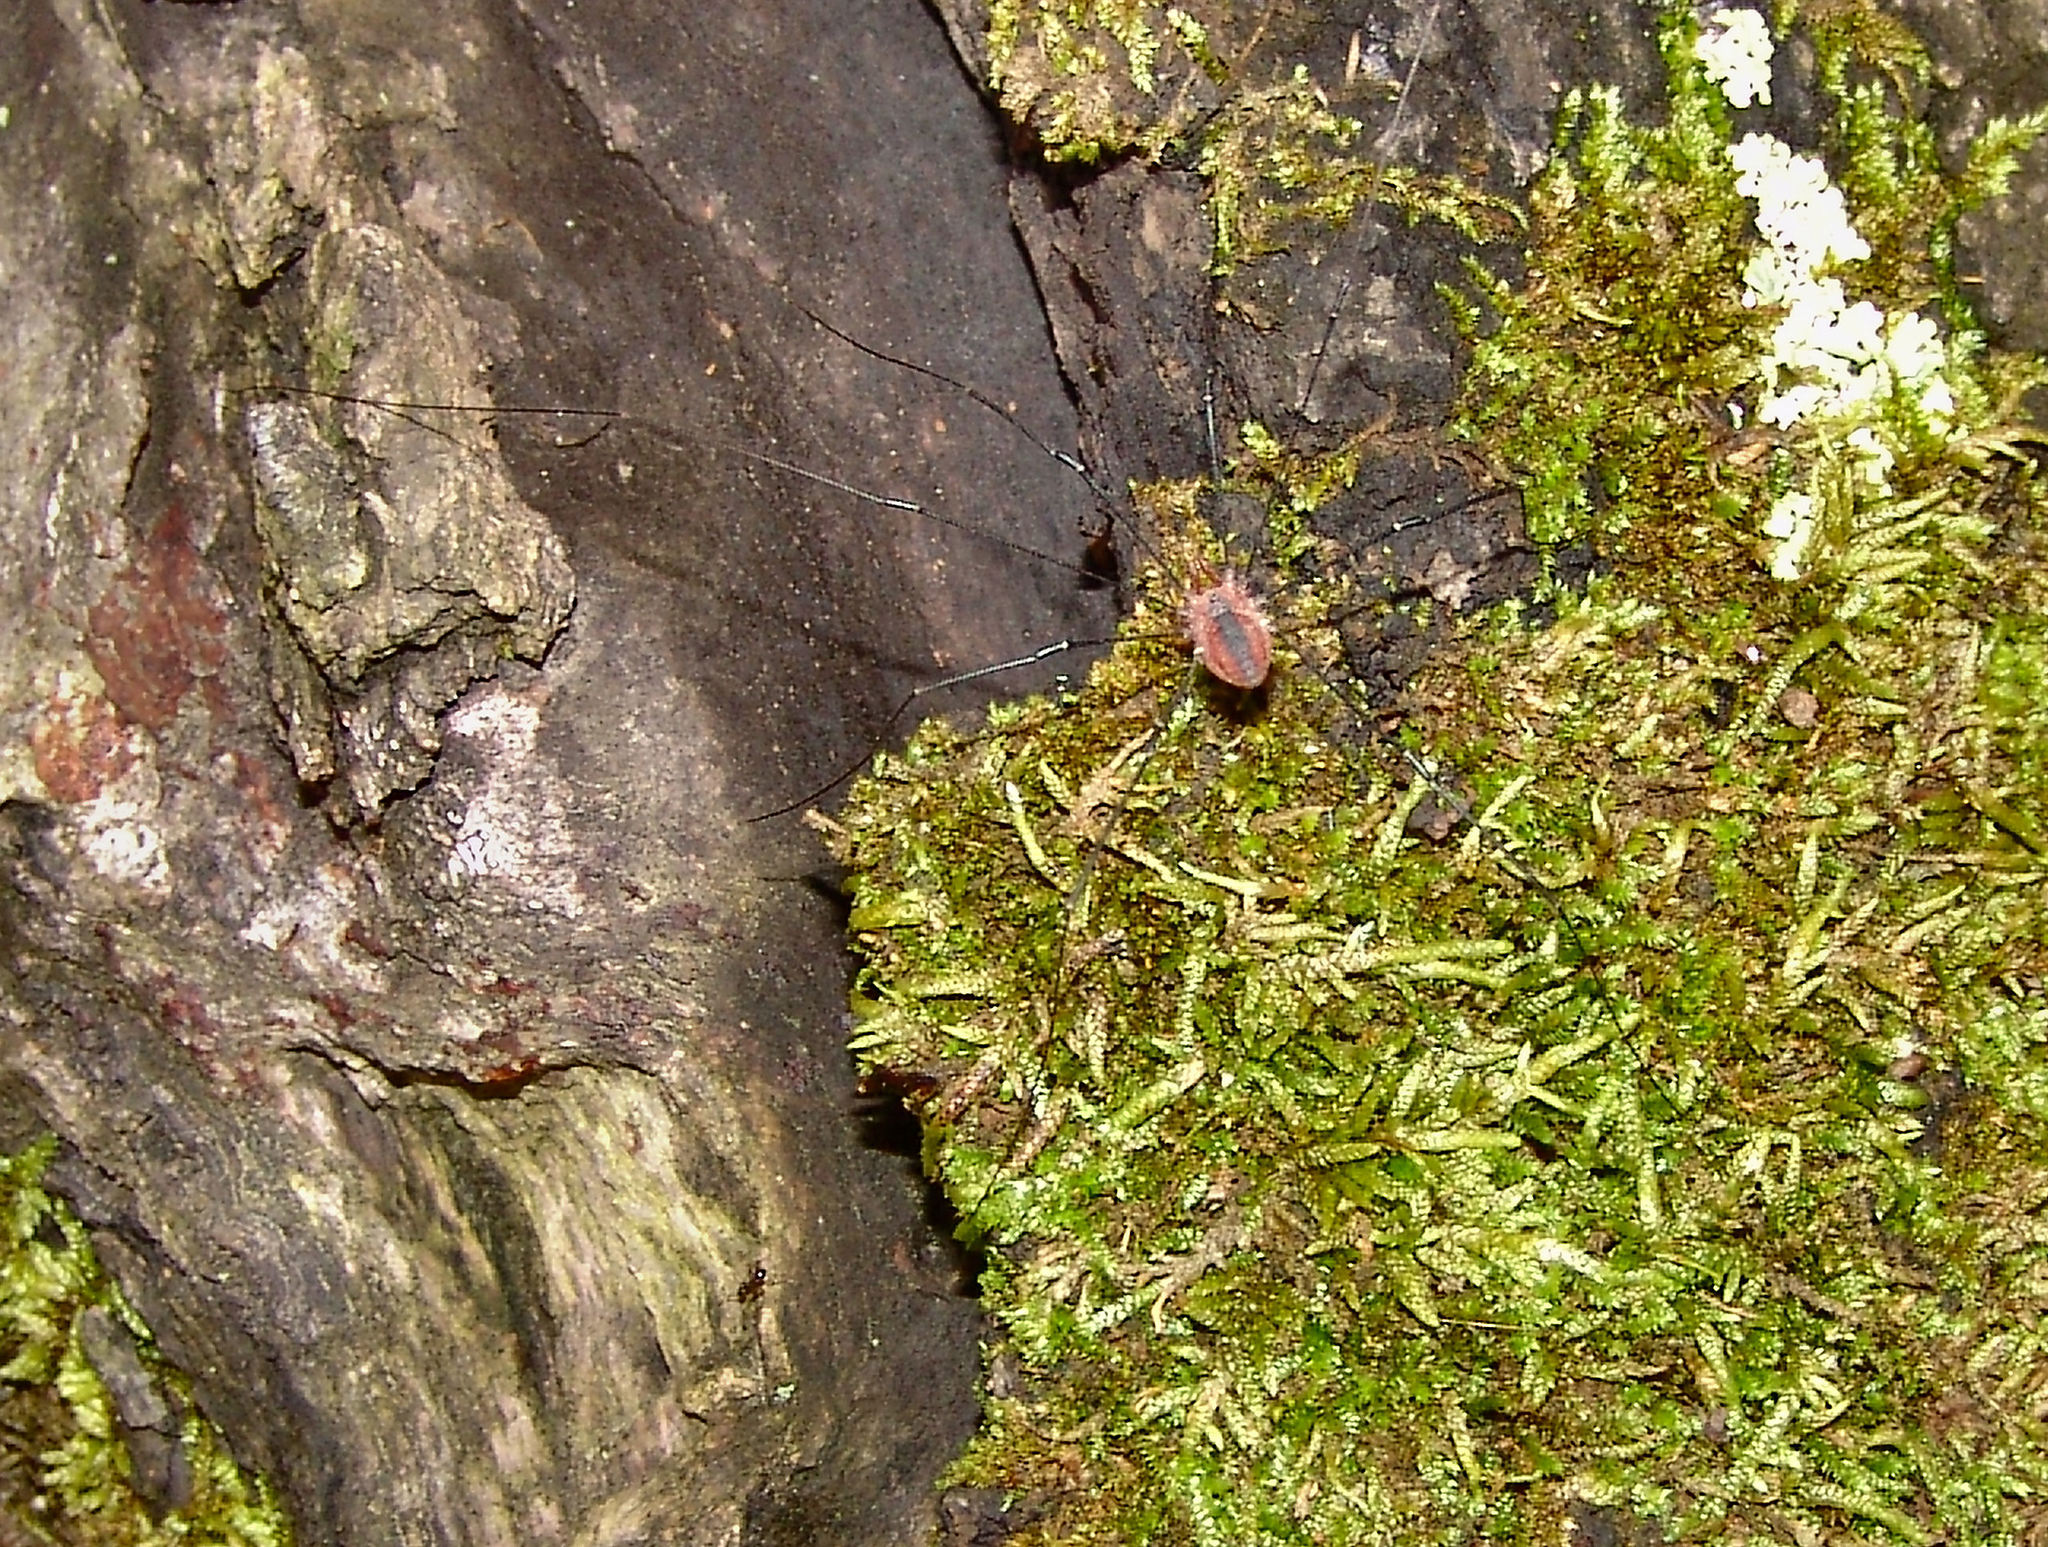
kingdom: Animalia
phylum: Arthropoda
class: Arachnida
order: Opiliones
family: Sclerosomatidae
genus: Leiobunum
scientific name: Leiobunum vittatum
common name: Eastern harvestman
